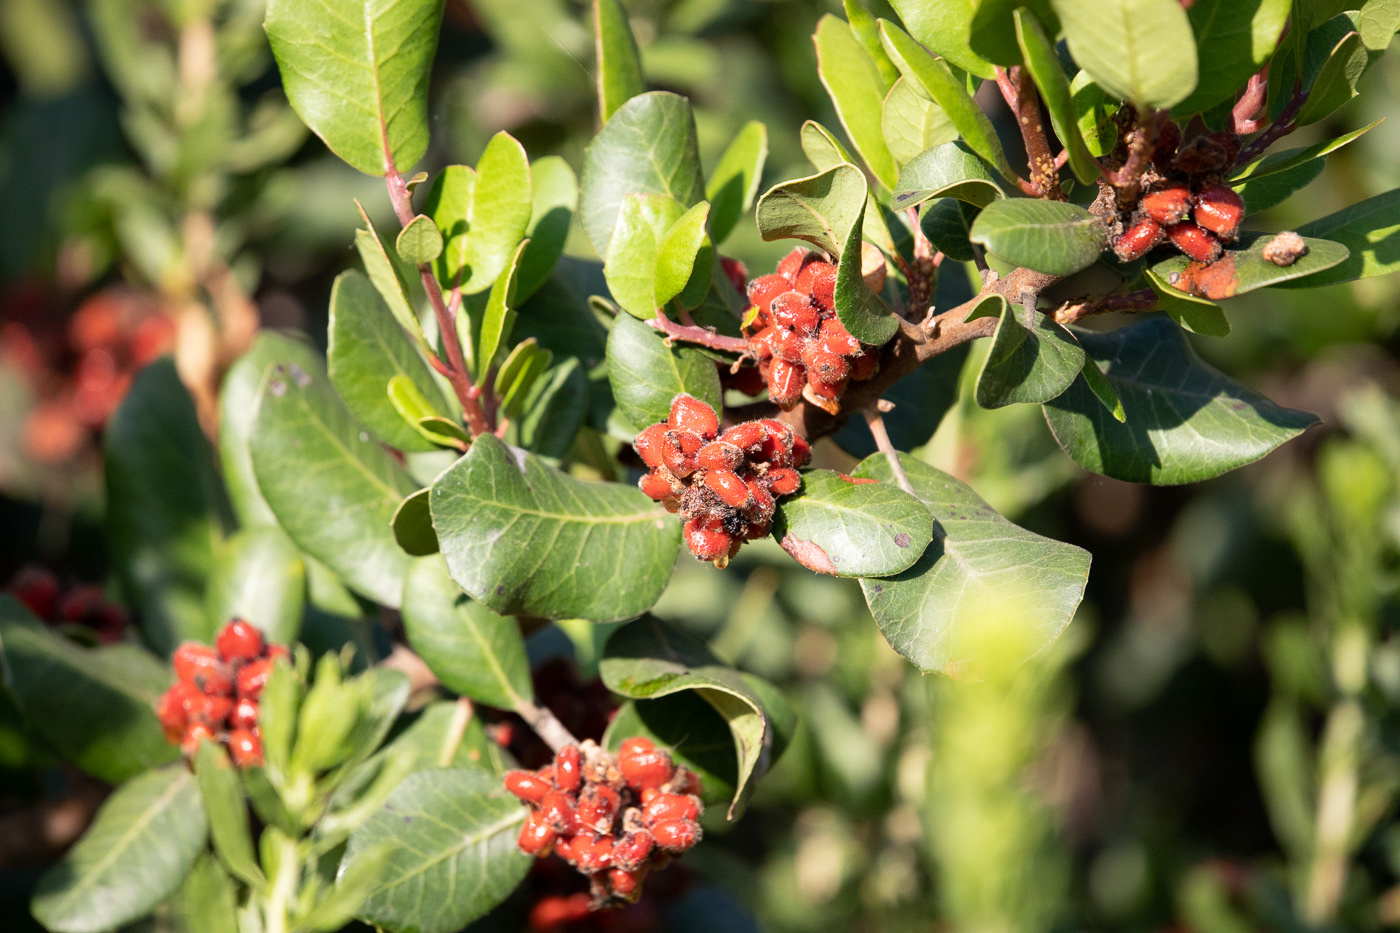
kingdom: Plantae
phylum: Tracheophyta
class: Magnoliopsida
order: Sapindales
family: Anacardiaceae
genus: Rhus
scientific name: Rhus integrifolia
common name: Lemonade sumac
